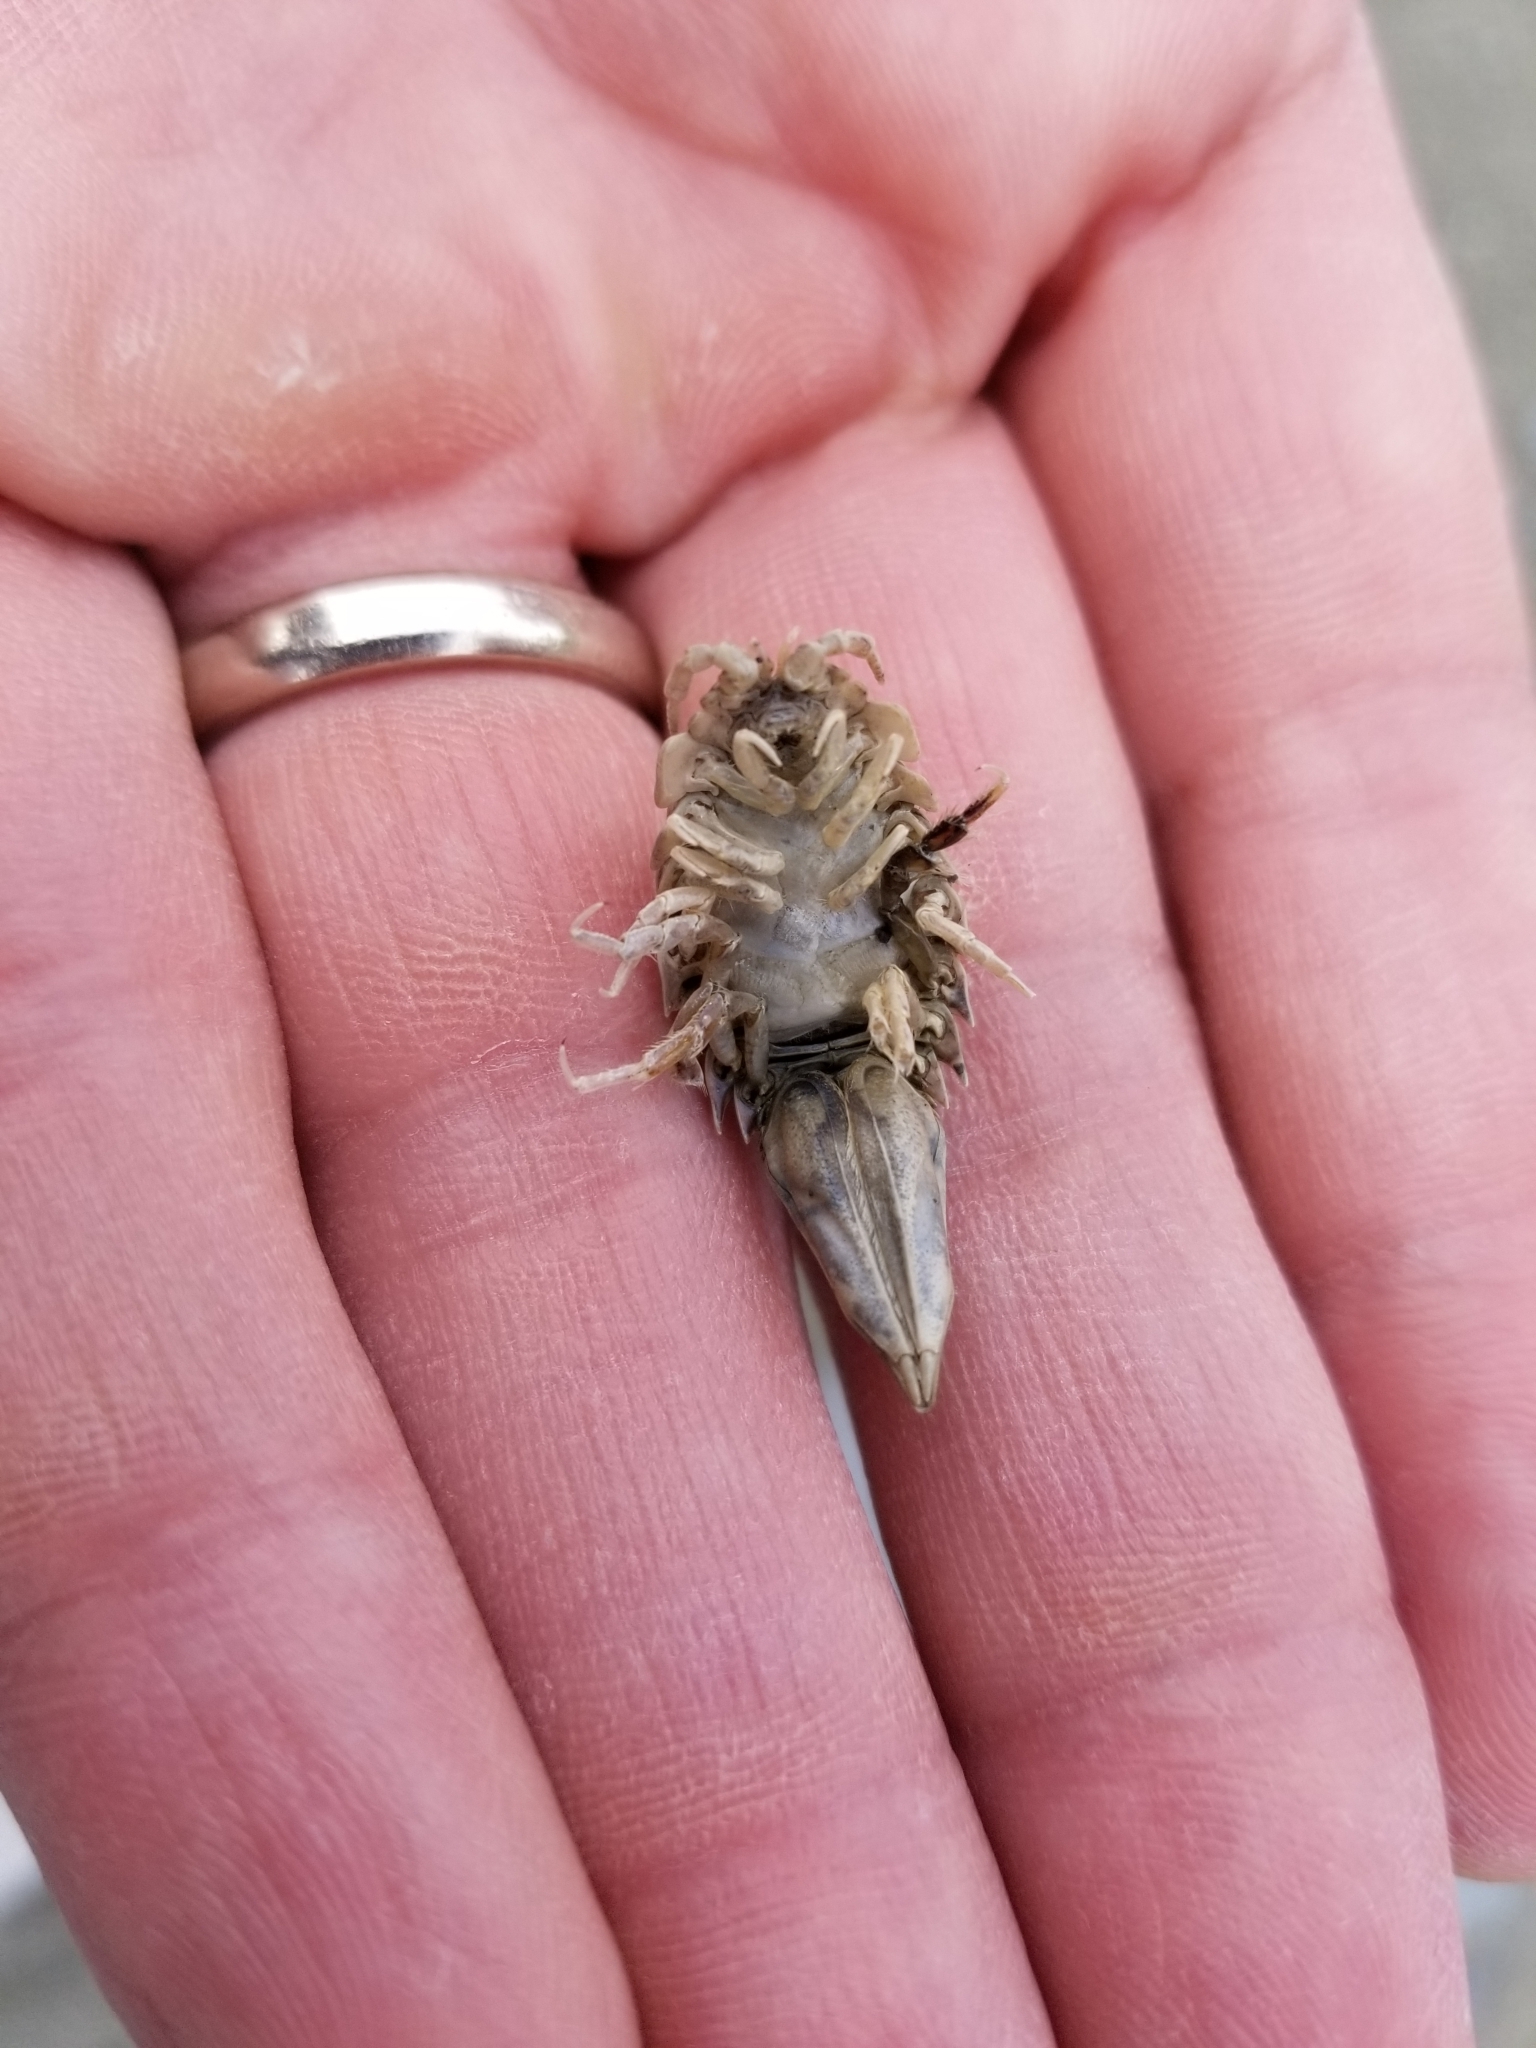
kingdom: Animalia
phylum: Arthropoda
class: Malacostraca
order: Isopoda
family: Chaetiliidae
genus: Saduria
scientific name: Saduria entomon
